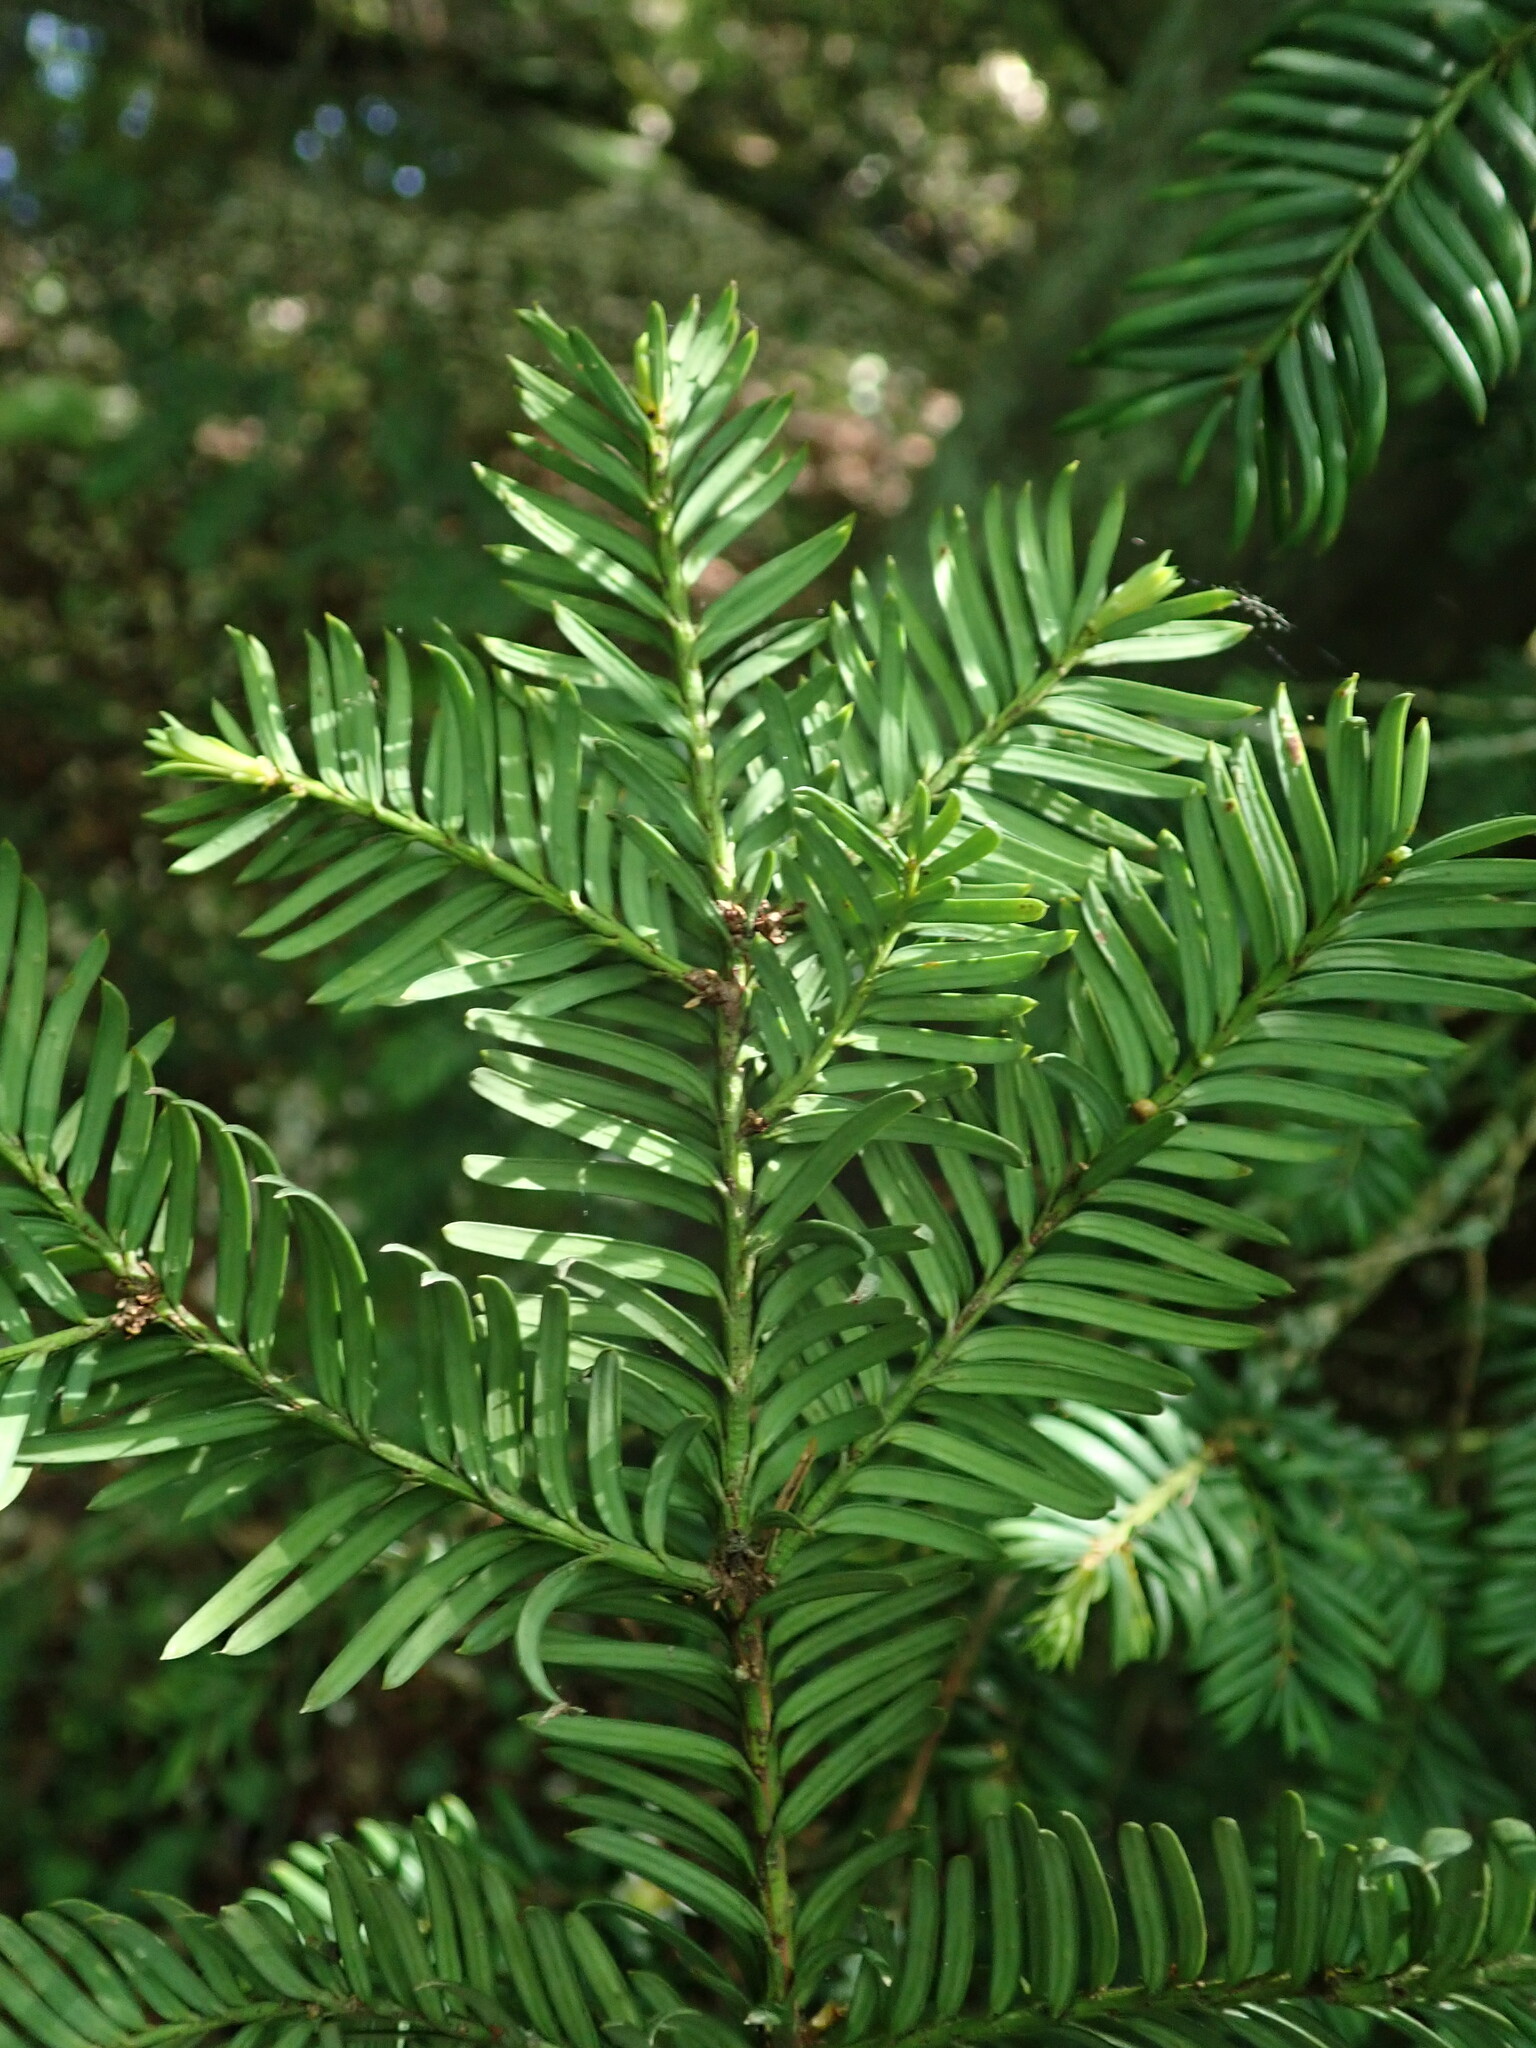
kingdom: Plantae
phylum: Tracheophyta
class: Pinopsida
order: Pinales
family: Taxaceae
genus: Taxus
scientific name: Taxus baccata
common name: Yew
